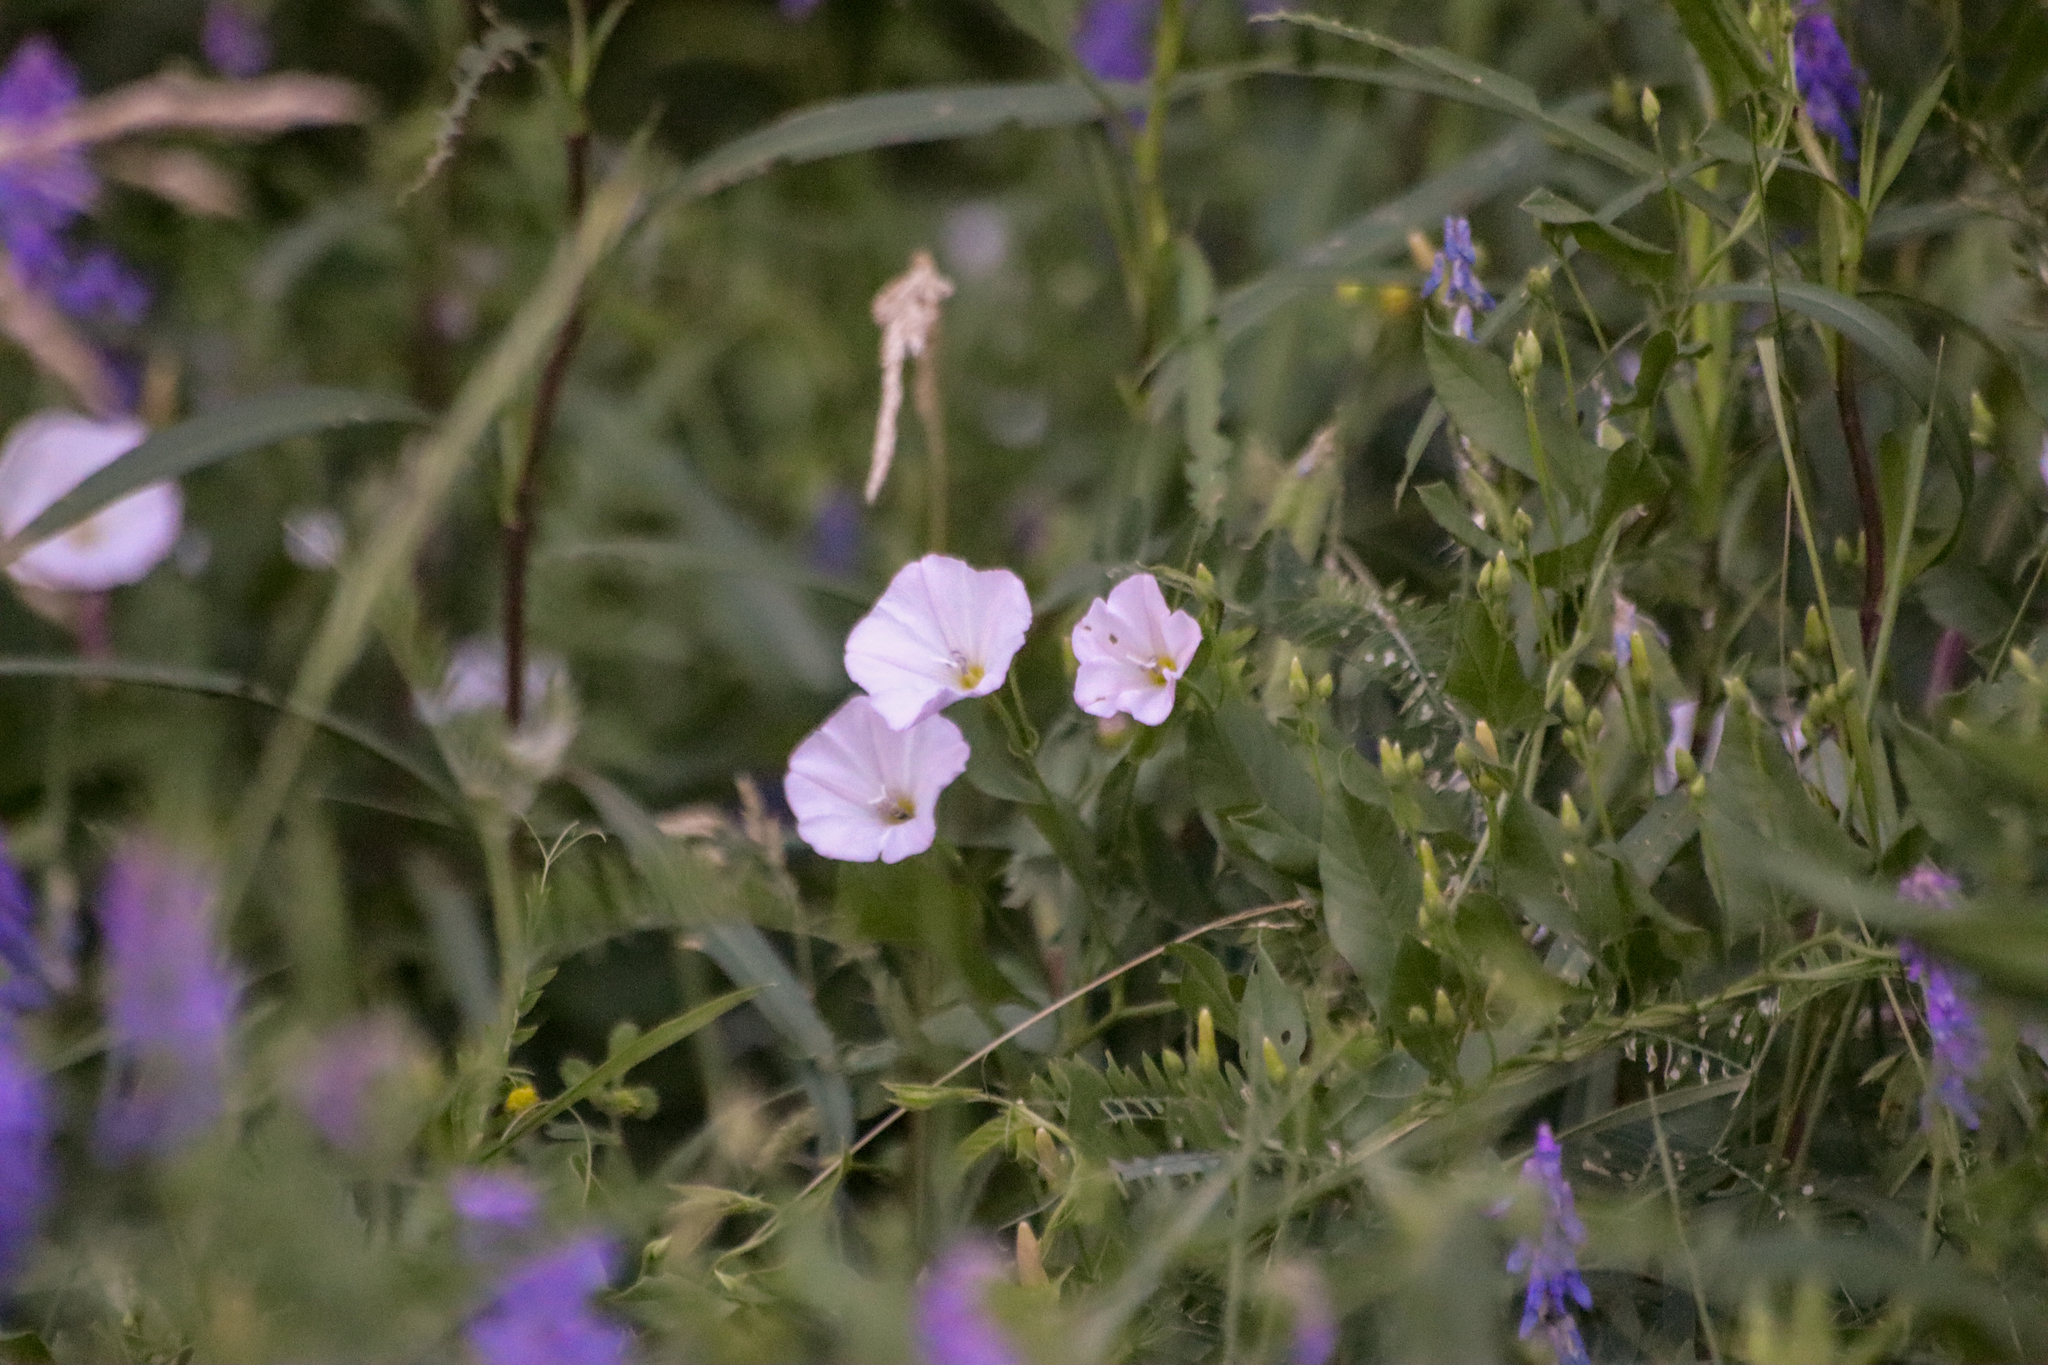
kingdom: Plantae
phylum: Tracheophyta
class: Magnoliopsida
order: Solanales
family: Convolvulaceae
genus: Convolvulus
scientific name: Convolvulus arvensis
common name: Field bindweed
